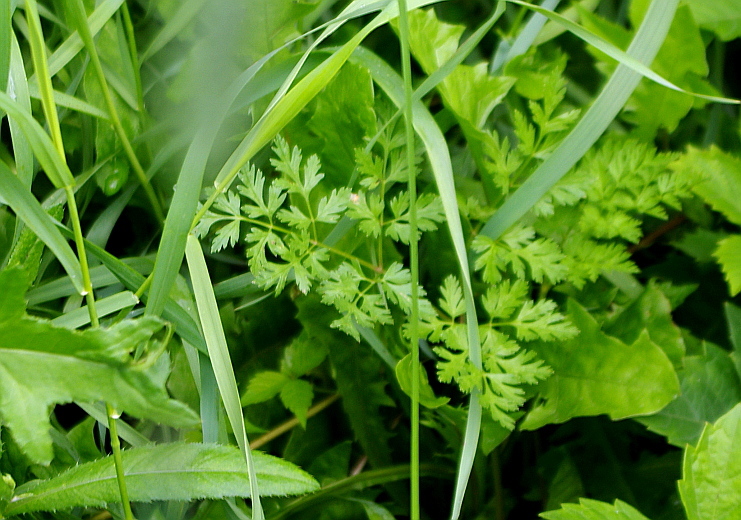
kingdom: Plantae
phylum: Tracheophyta
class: Magnoliopsida
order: Apiales
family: Apiaceae
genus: Anthriscus
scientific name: Anthriscus sylvestris
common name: Cow parsley
